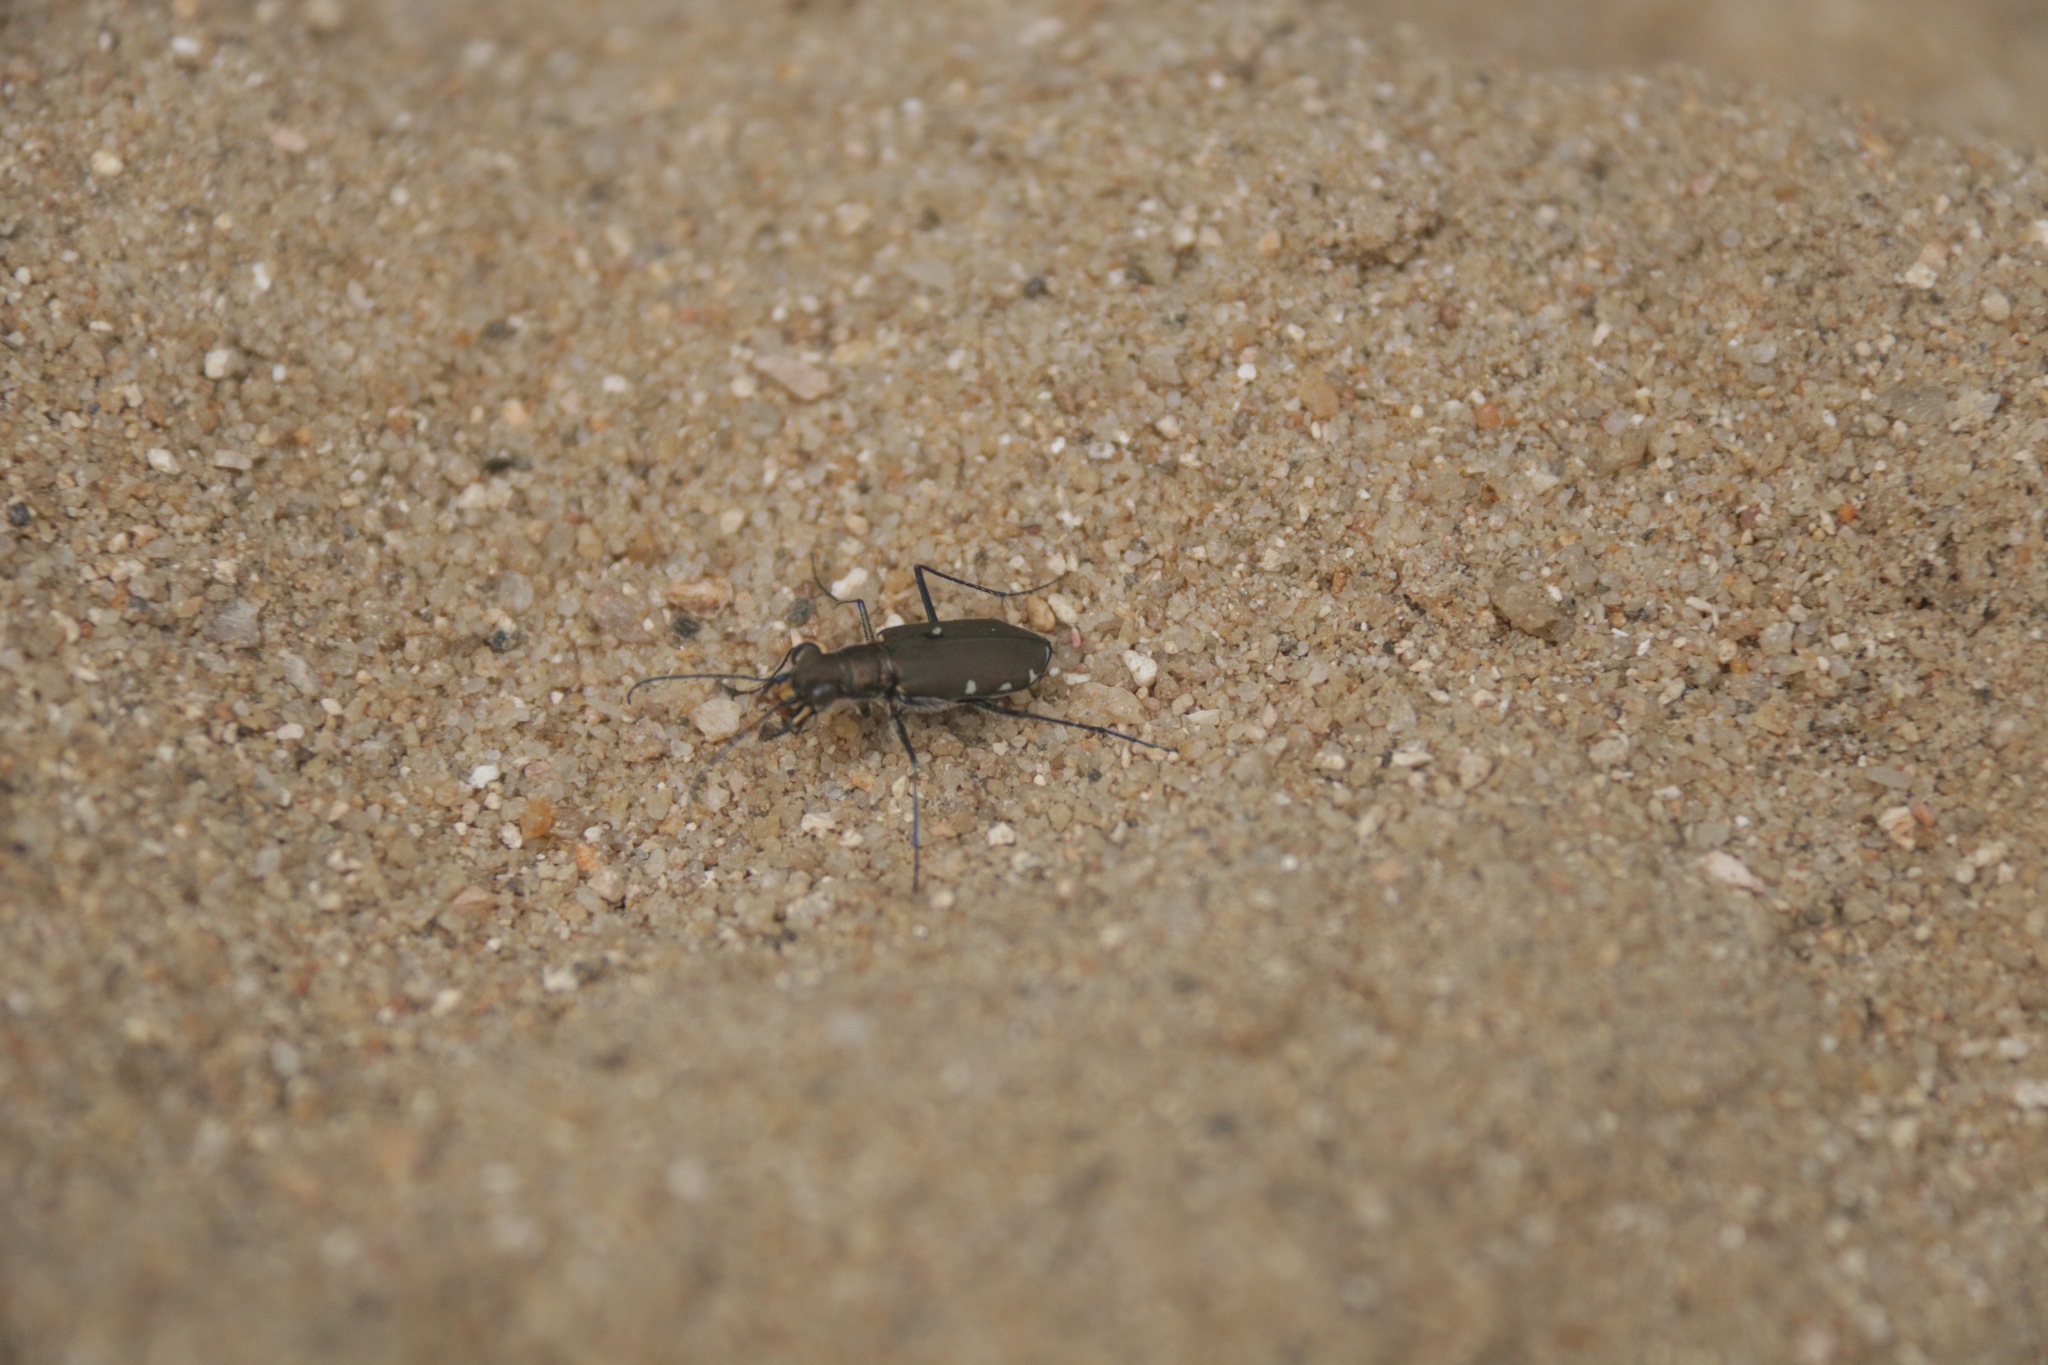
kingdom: Animalia
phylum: Arthropoda
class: Insecta
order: Coleoptera
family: Carabidae
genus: Cicindela
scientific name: Cicindela funerea
